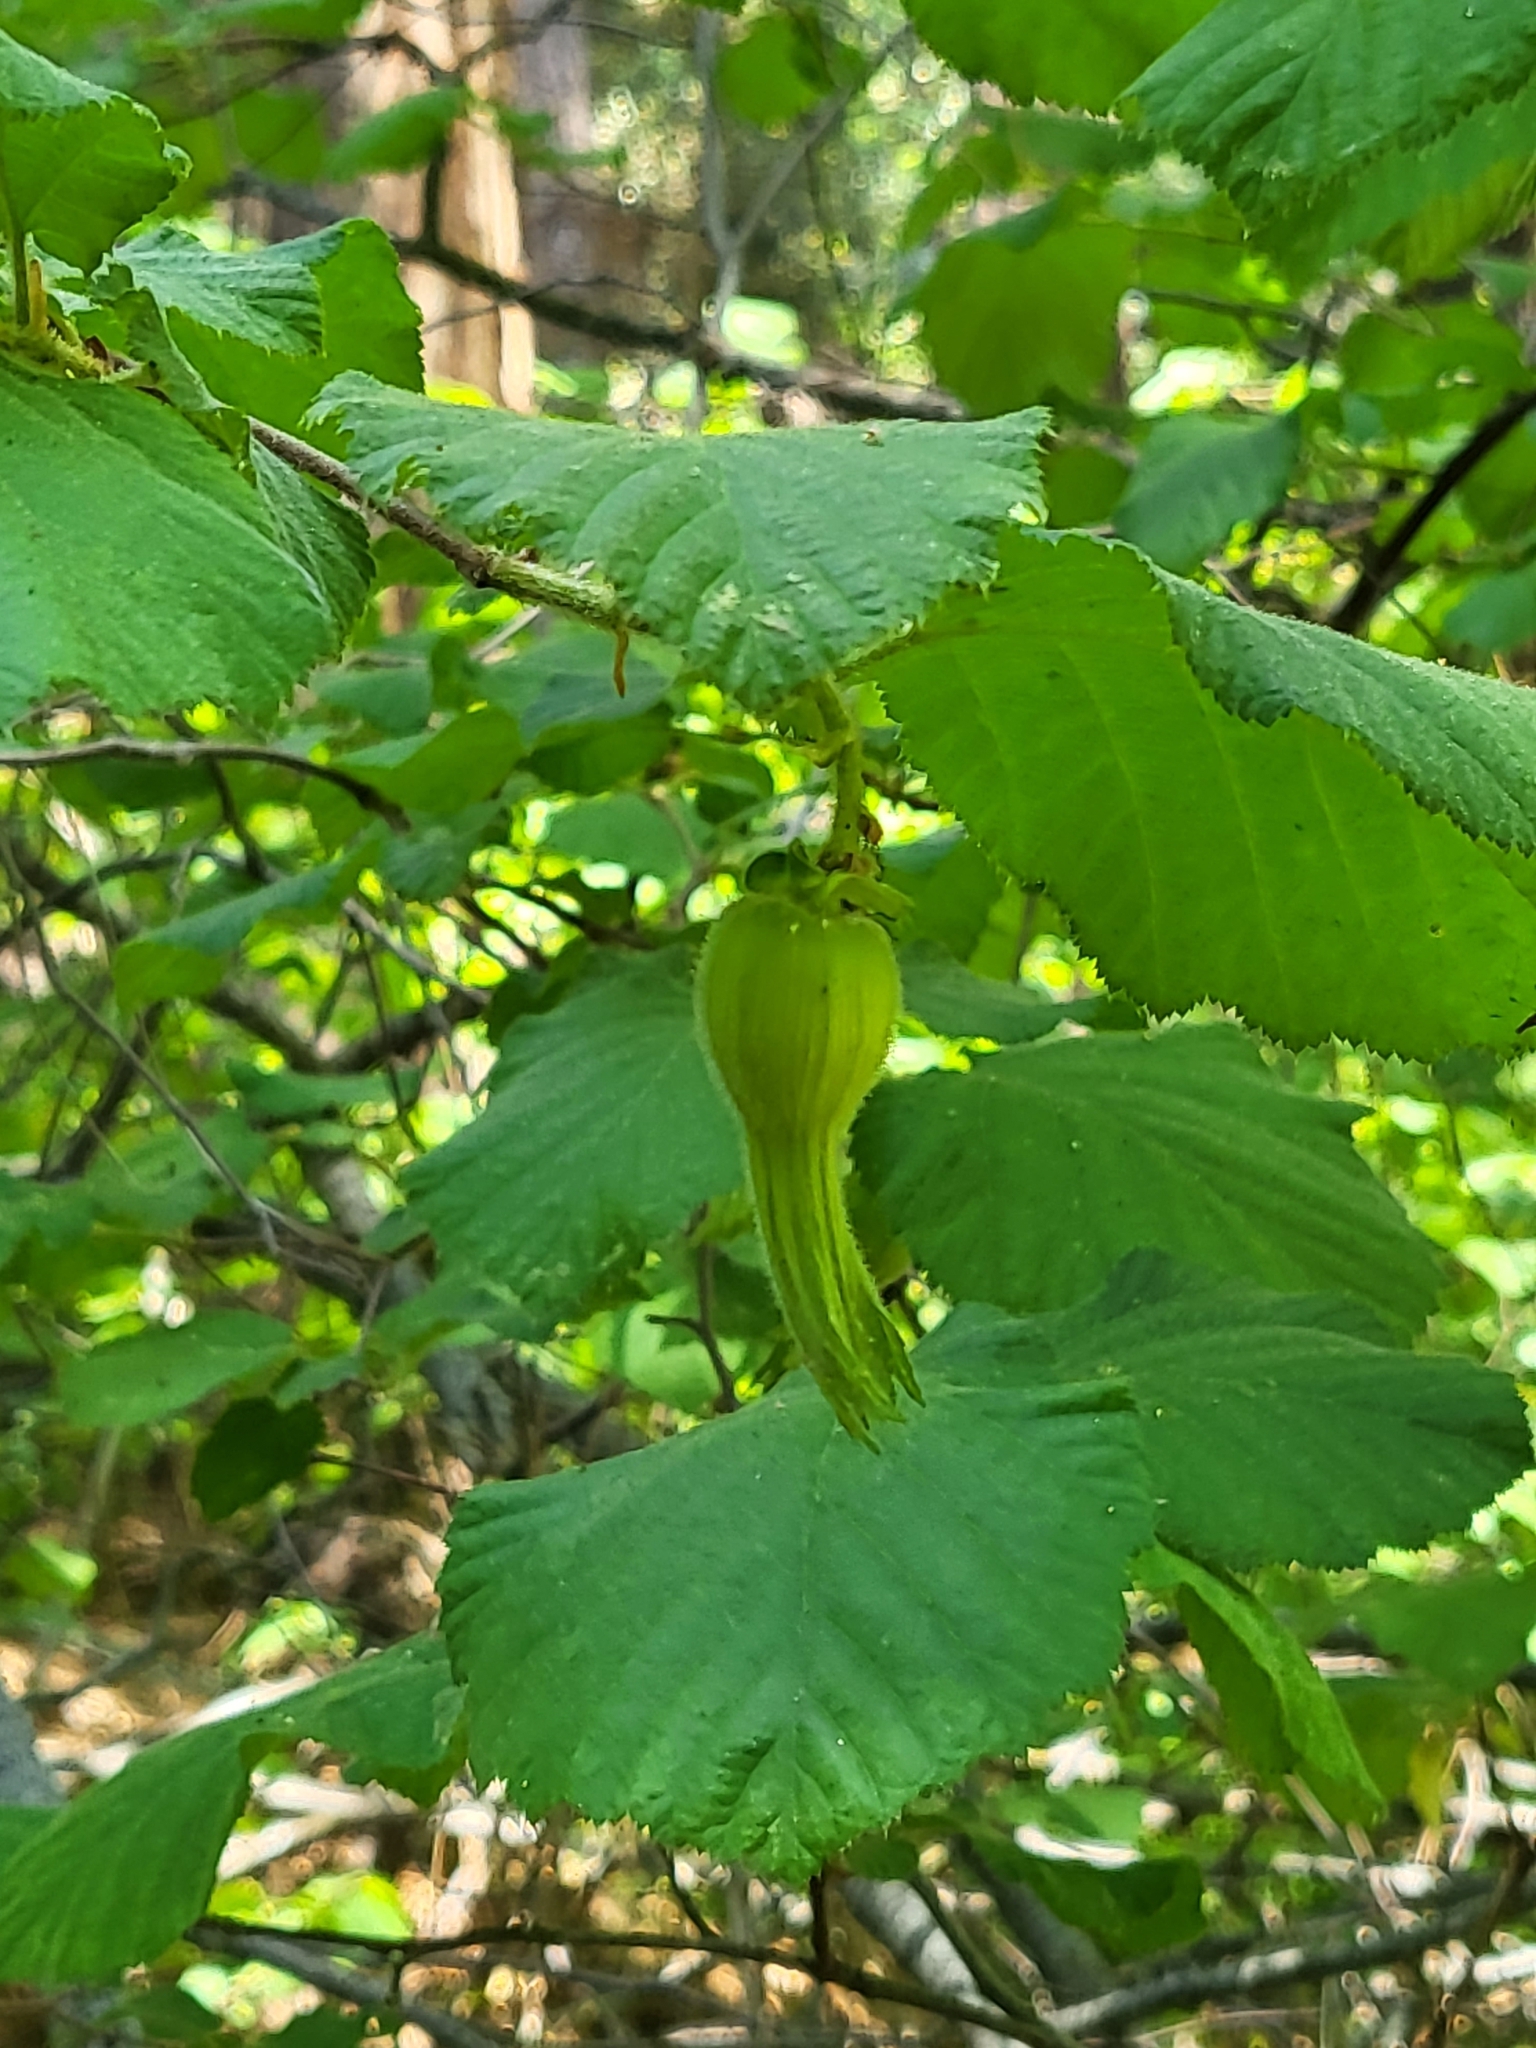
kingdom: Plantae
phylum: Tracheophyta
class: Magnoliopsida
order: Fagales
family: Betulaceae
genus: Corylus
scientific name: Corylus cornuta
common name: Beaked hazel
